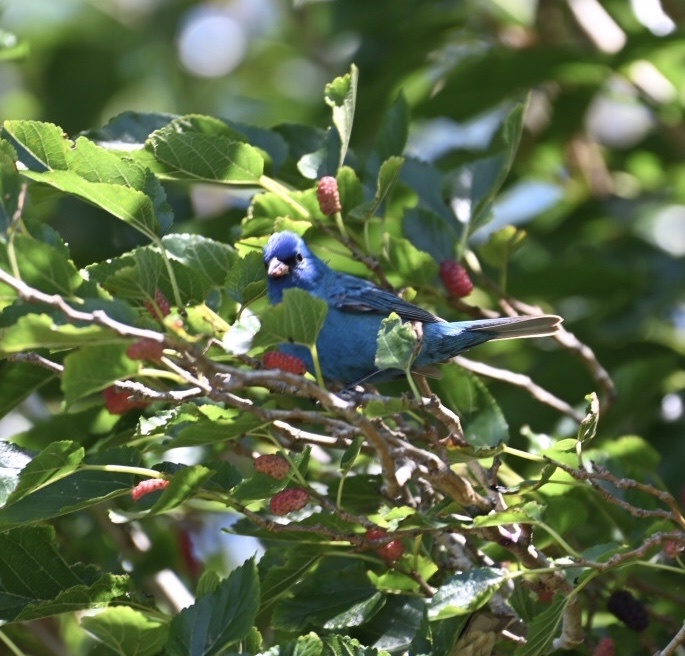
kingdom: Animalia
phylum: Chordata
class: Aves
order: Passeriformes
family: Cardinalidae
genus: Passerina
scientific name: Passerina cyanea
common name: Indigo bunting
